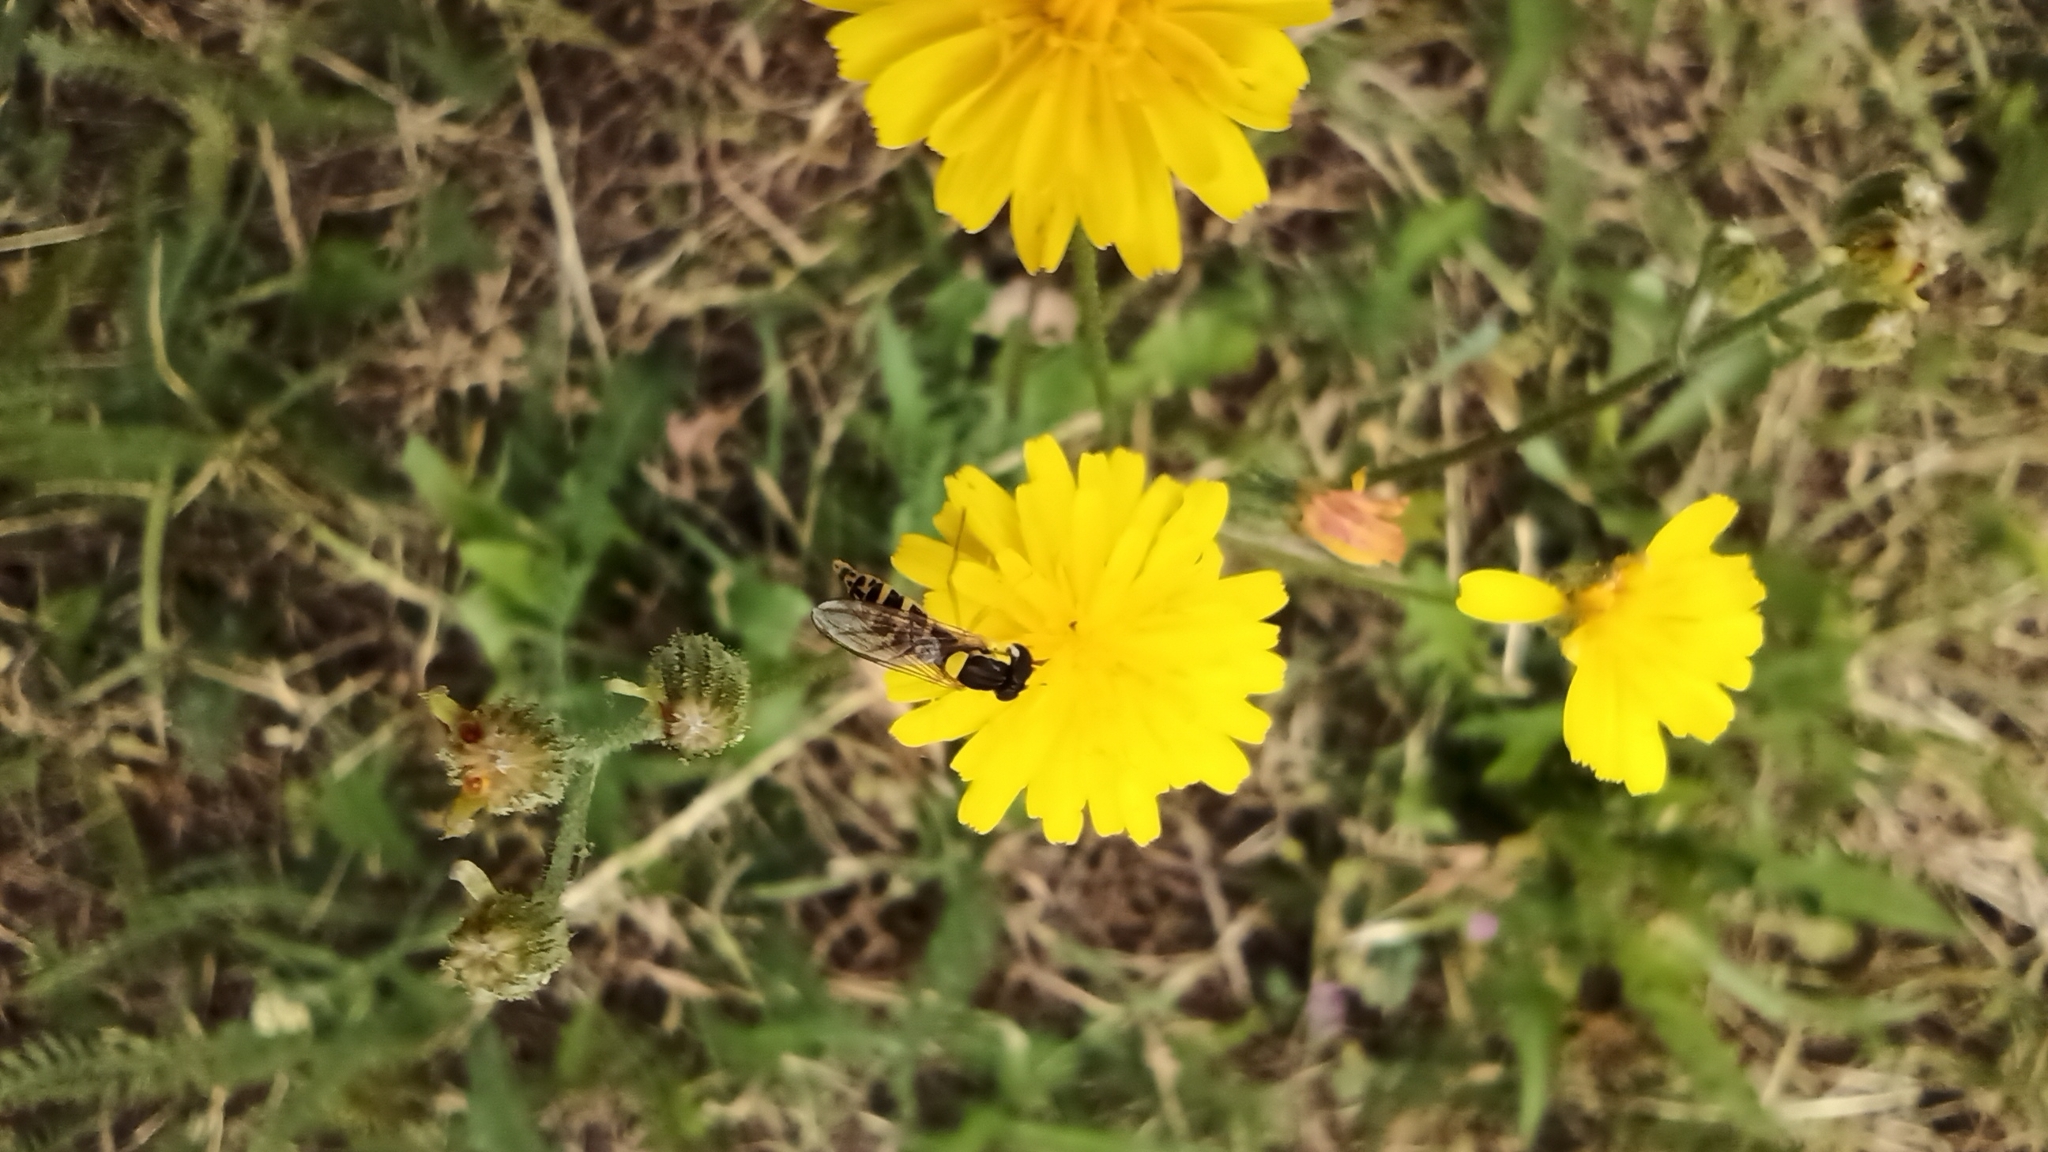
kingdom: Animalia
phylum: Arthropoda
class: Insecta
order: Diptera
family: Syrphidae
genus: Sphaerophoria
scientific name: Sphaerophoria scripta
